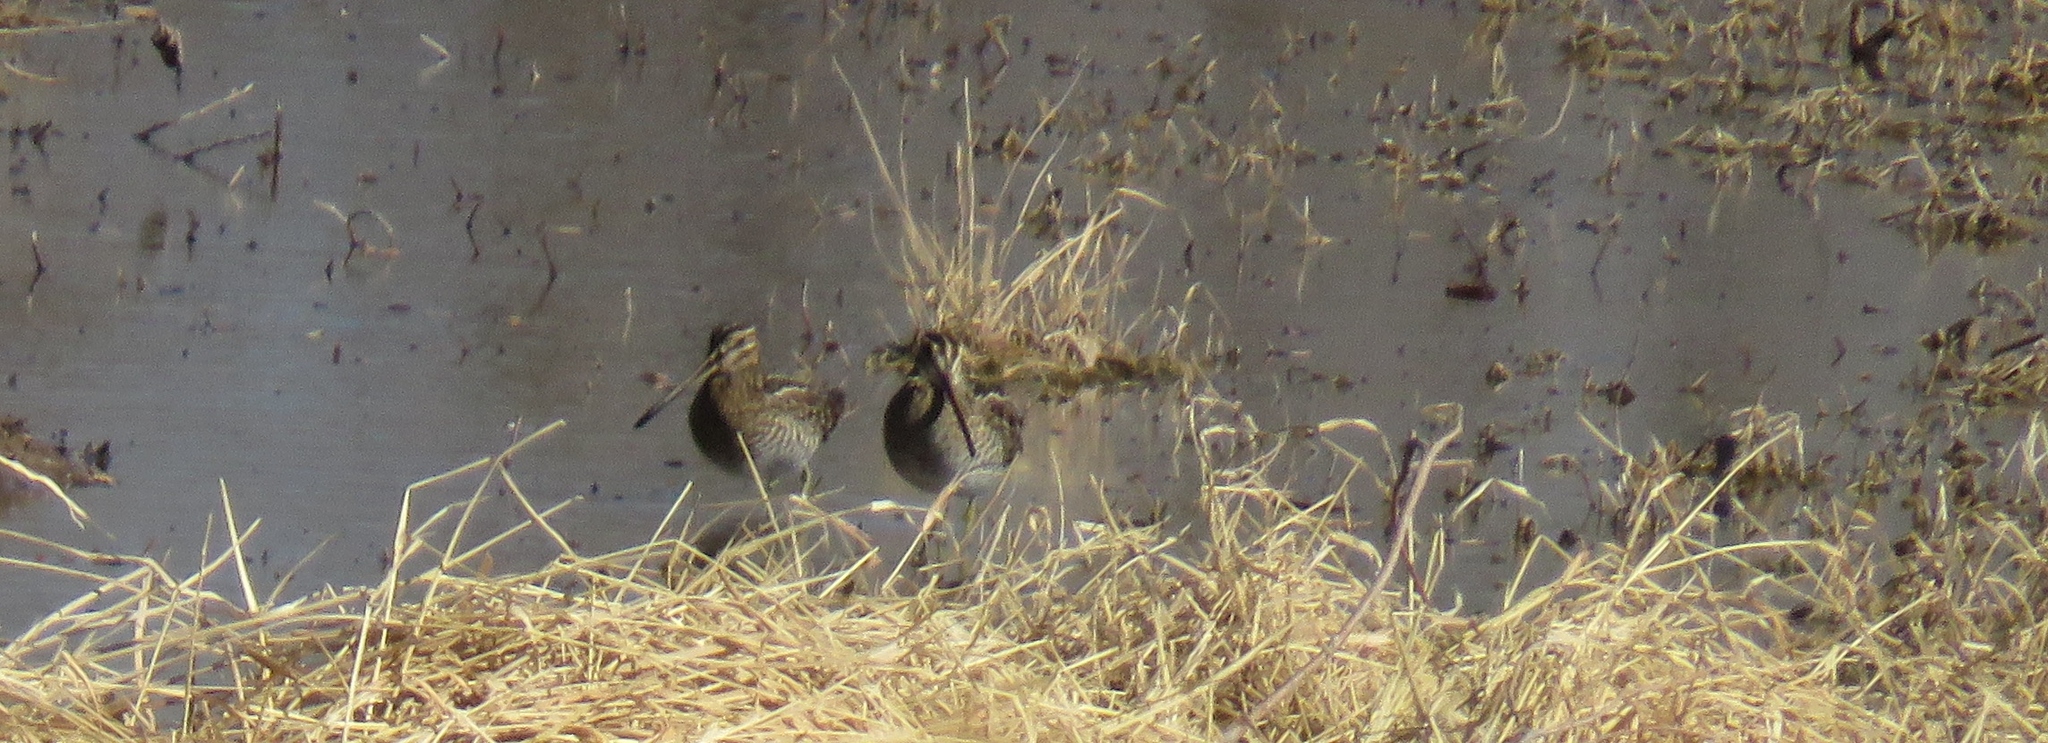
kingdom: Animalia
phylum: Chordata
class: Aves
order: Charadriiformes
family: Scolopacidae
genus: Gallinago
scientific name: Gallinago delicata
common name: Wilson's snipe
